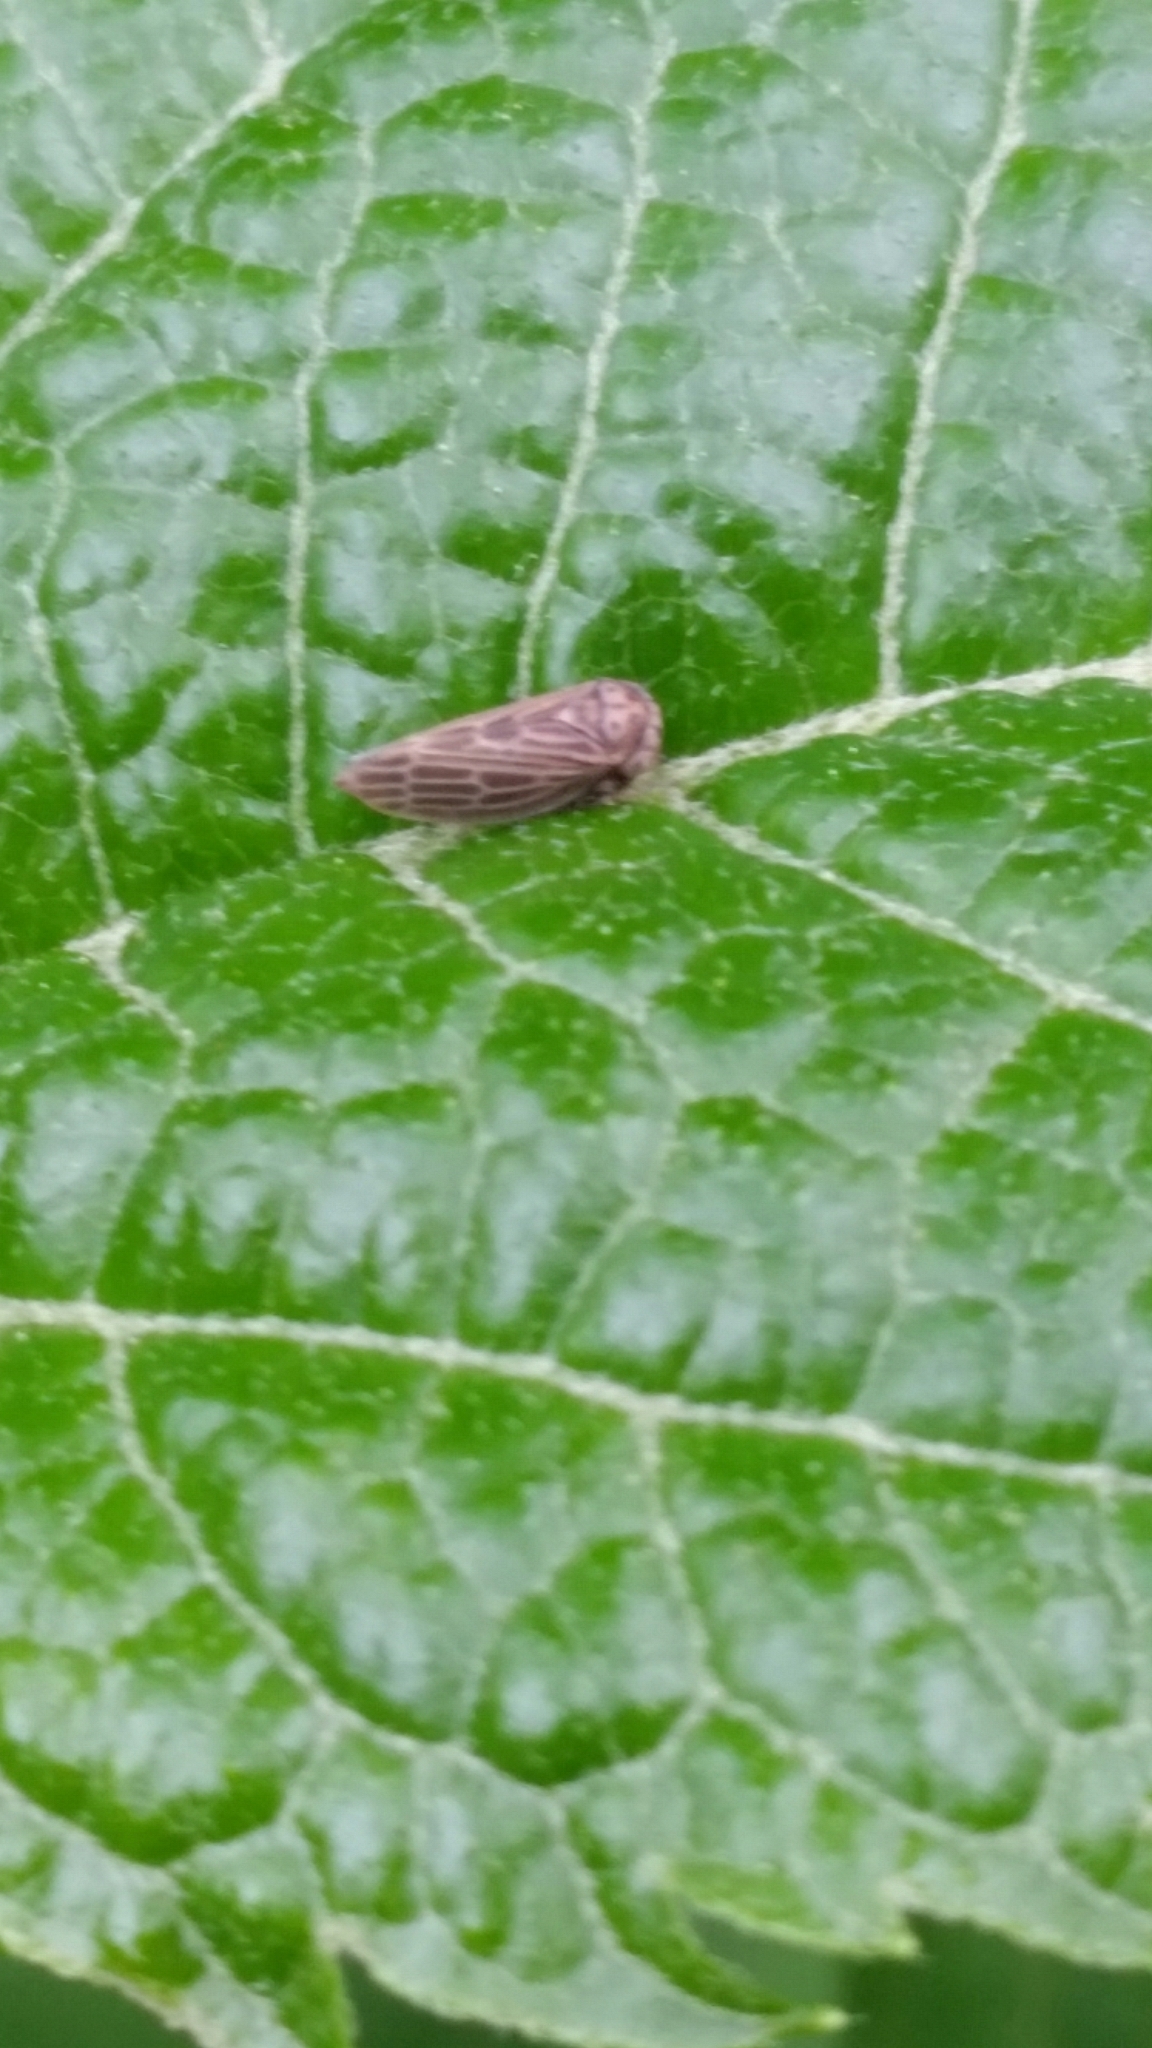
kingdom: Animalia
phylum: Arthropoda
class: Insecta
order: Hemiptera
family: Cicadellidae
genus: Agallia
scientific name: Agallia
